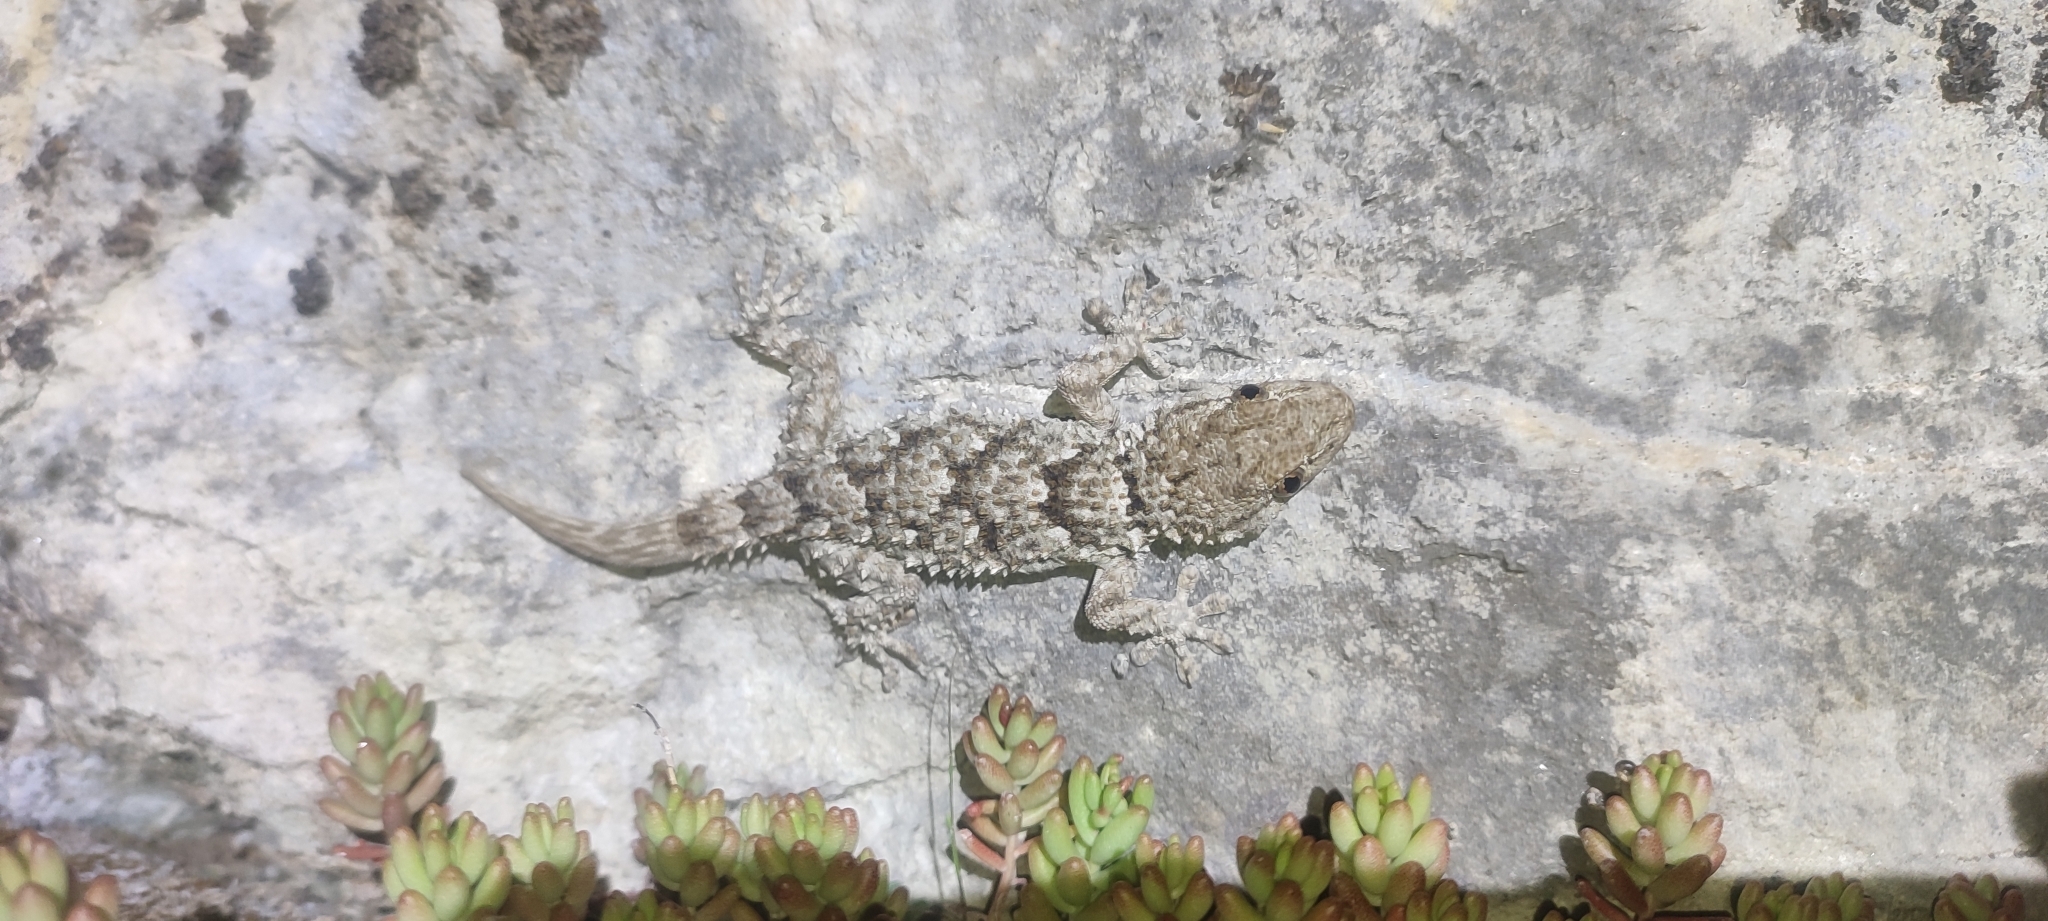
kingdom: Animalia
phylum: Chordata
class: Squamata
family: Phyllodactylidae
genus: Tarentola
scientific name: Tarentola mauritanica
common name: Moorish gecko
